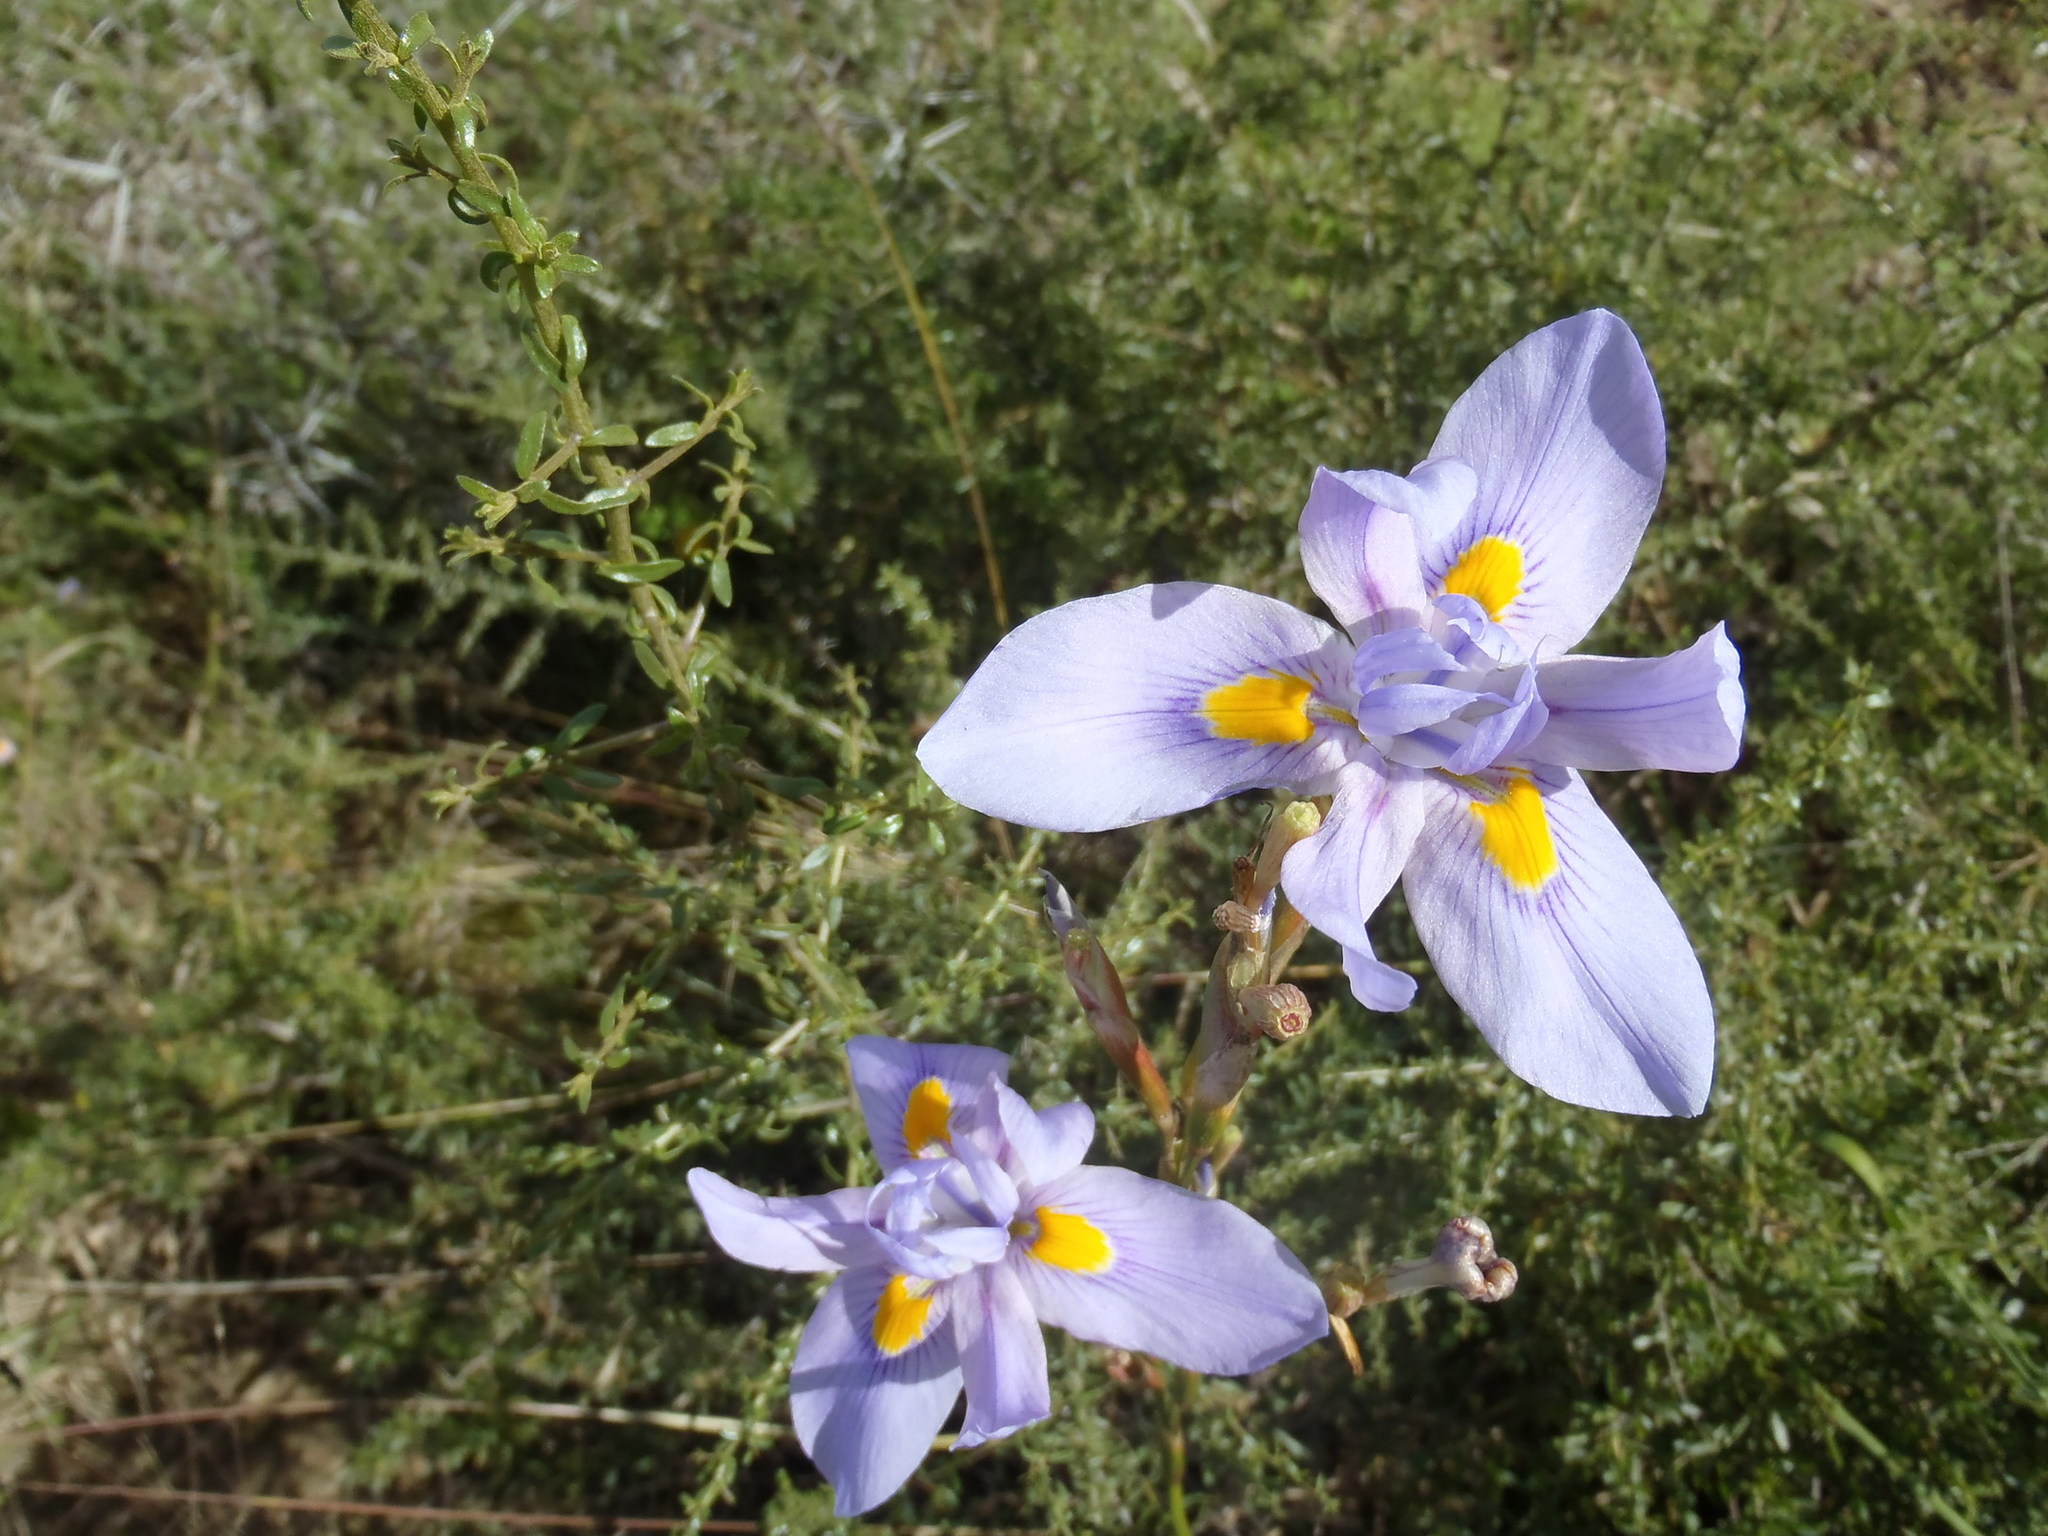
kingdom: Plantae
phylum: Tracheophyta
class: Liliopsida
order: Asparagales
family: Iridaceae
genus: Moraea
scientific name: Moraea polystachya
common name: Blue-tulip
